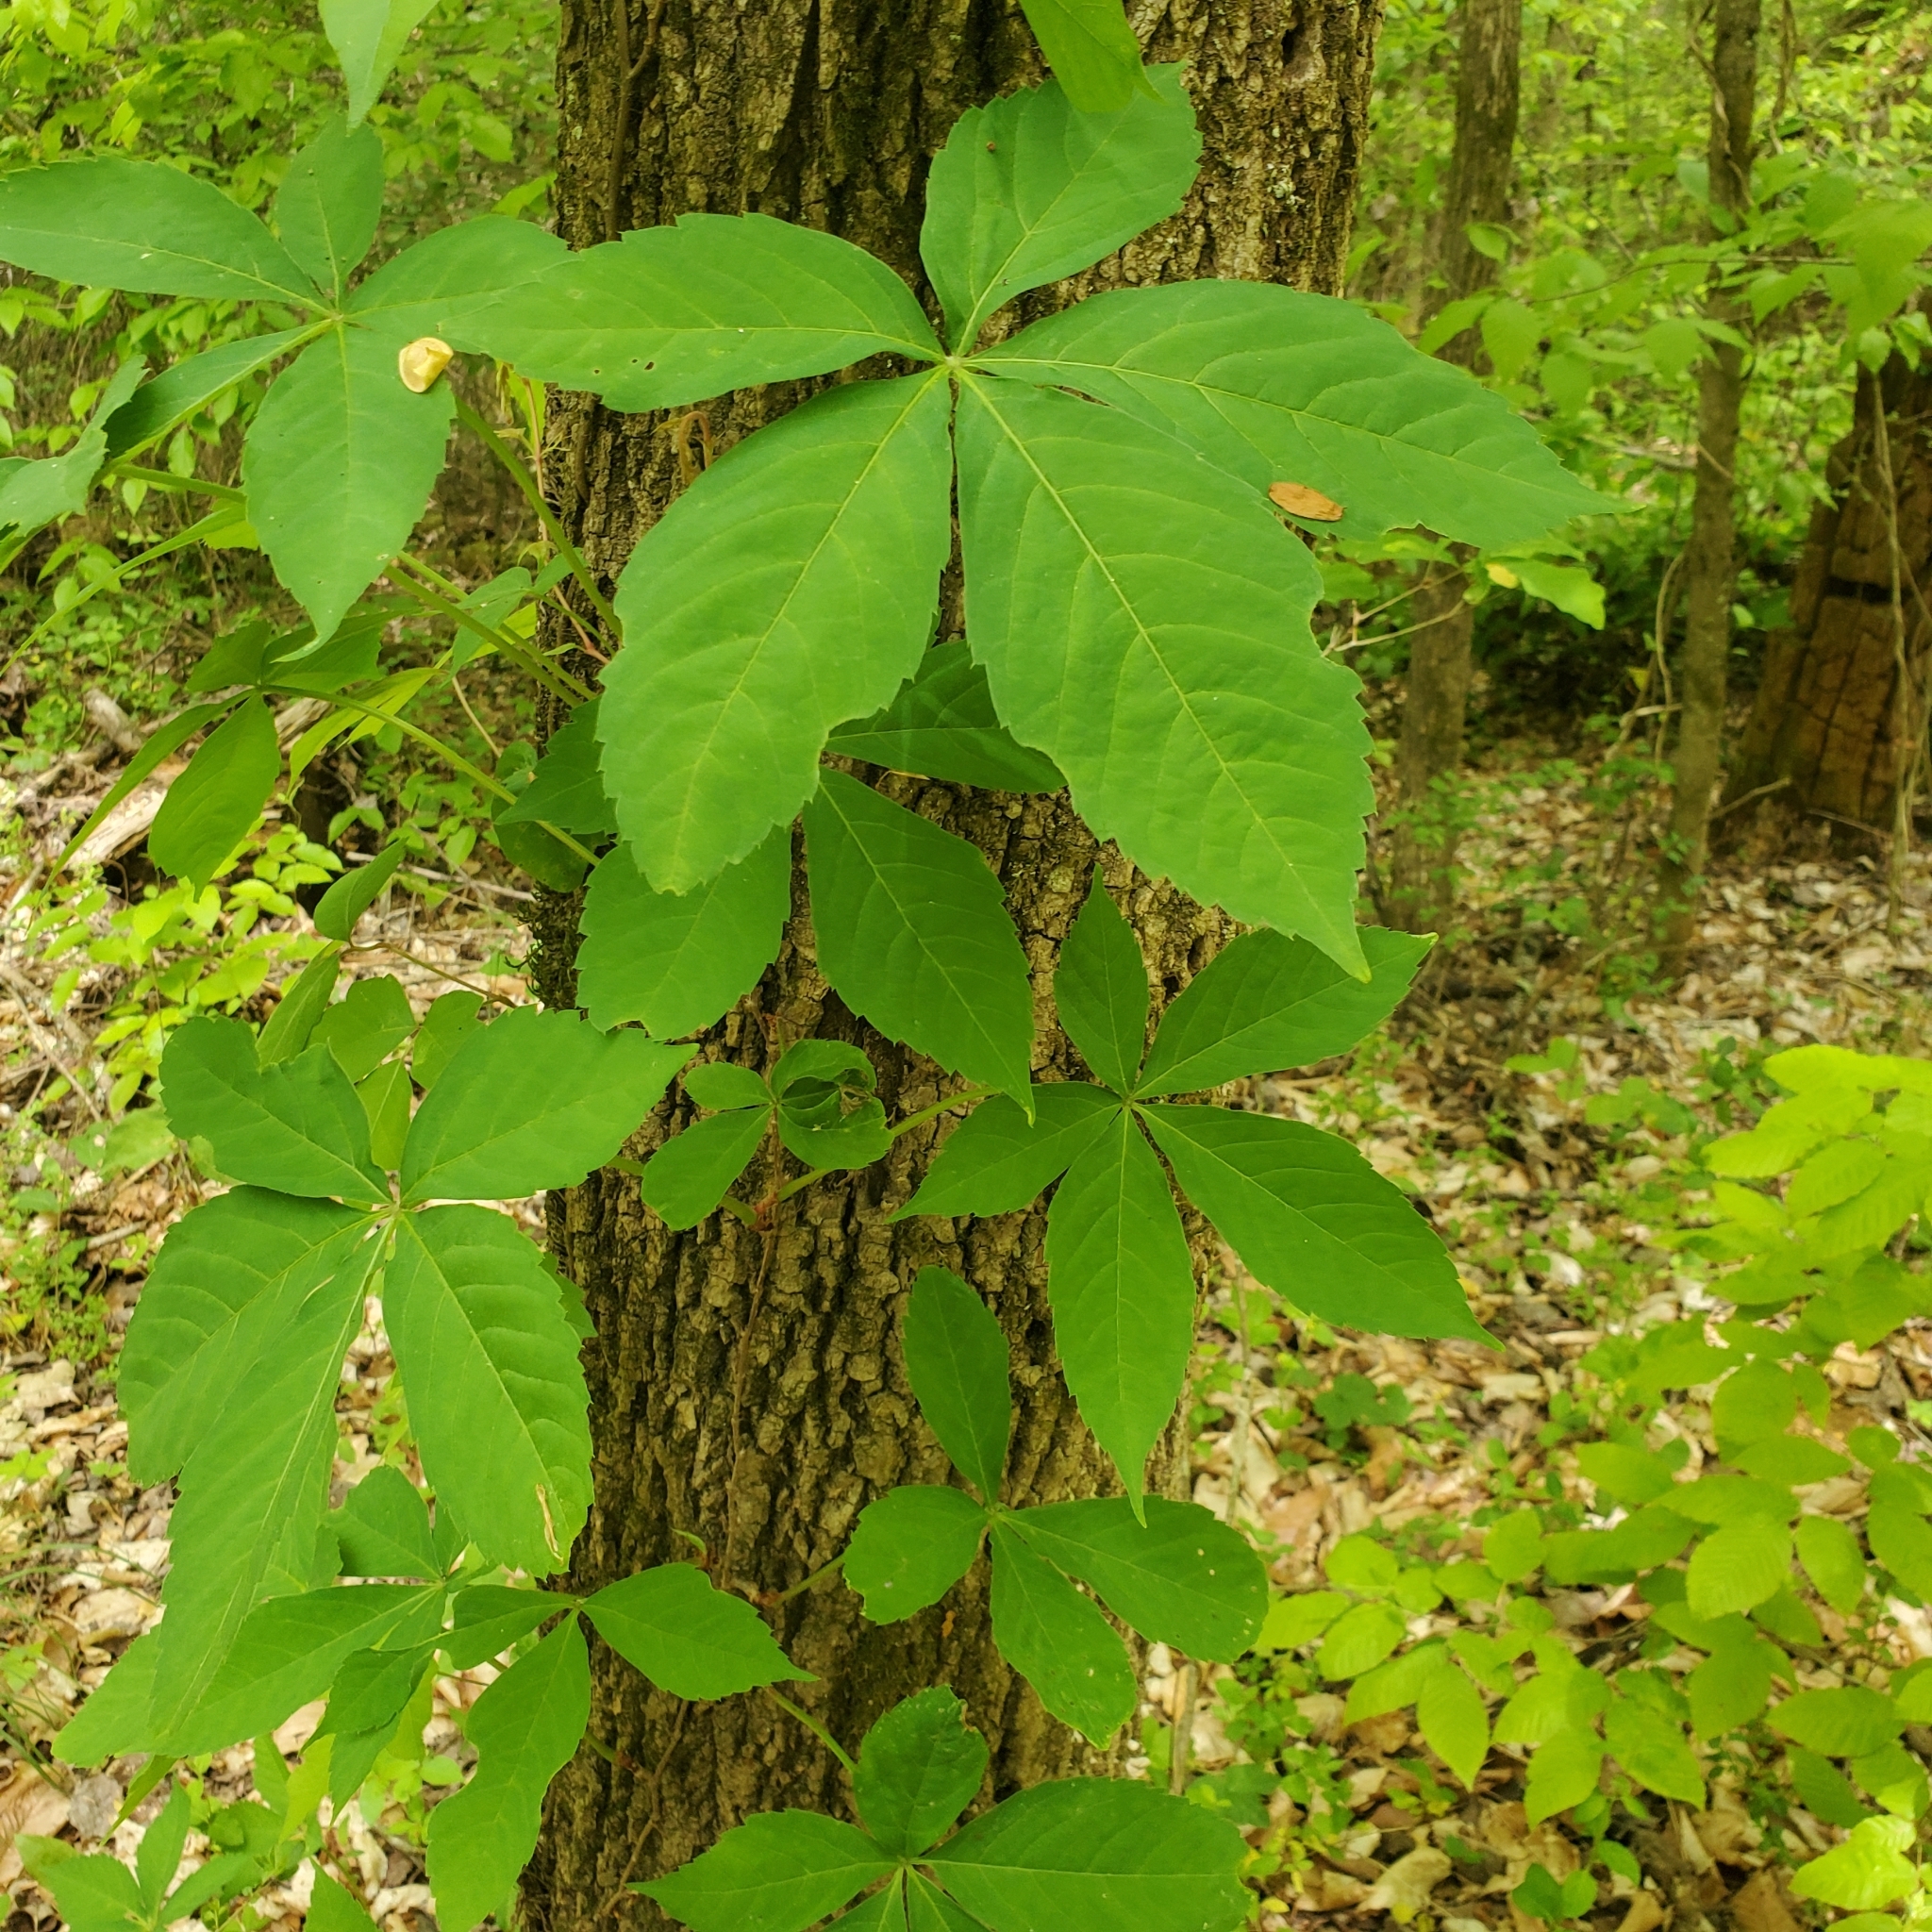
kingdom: Plantae
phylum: Tracheophyta
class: Magnoliopsida
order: Vitales
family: Vitaceae
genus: Parthenocissus
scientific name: Parthenocissus quinquefolia
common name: Virginia-creeper
